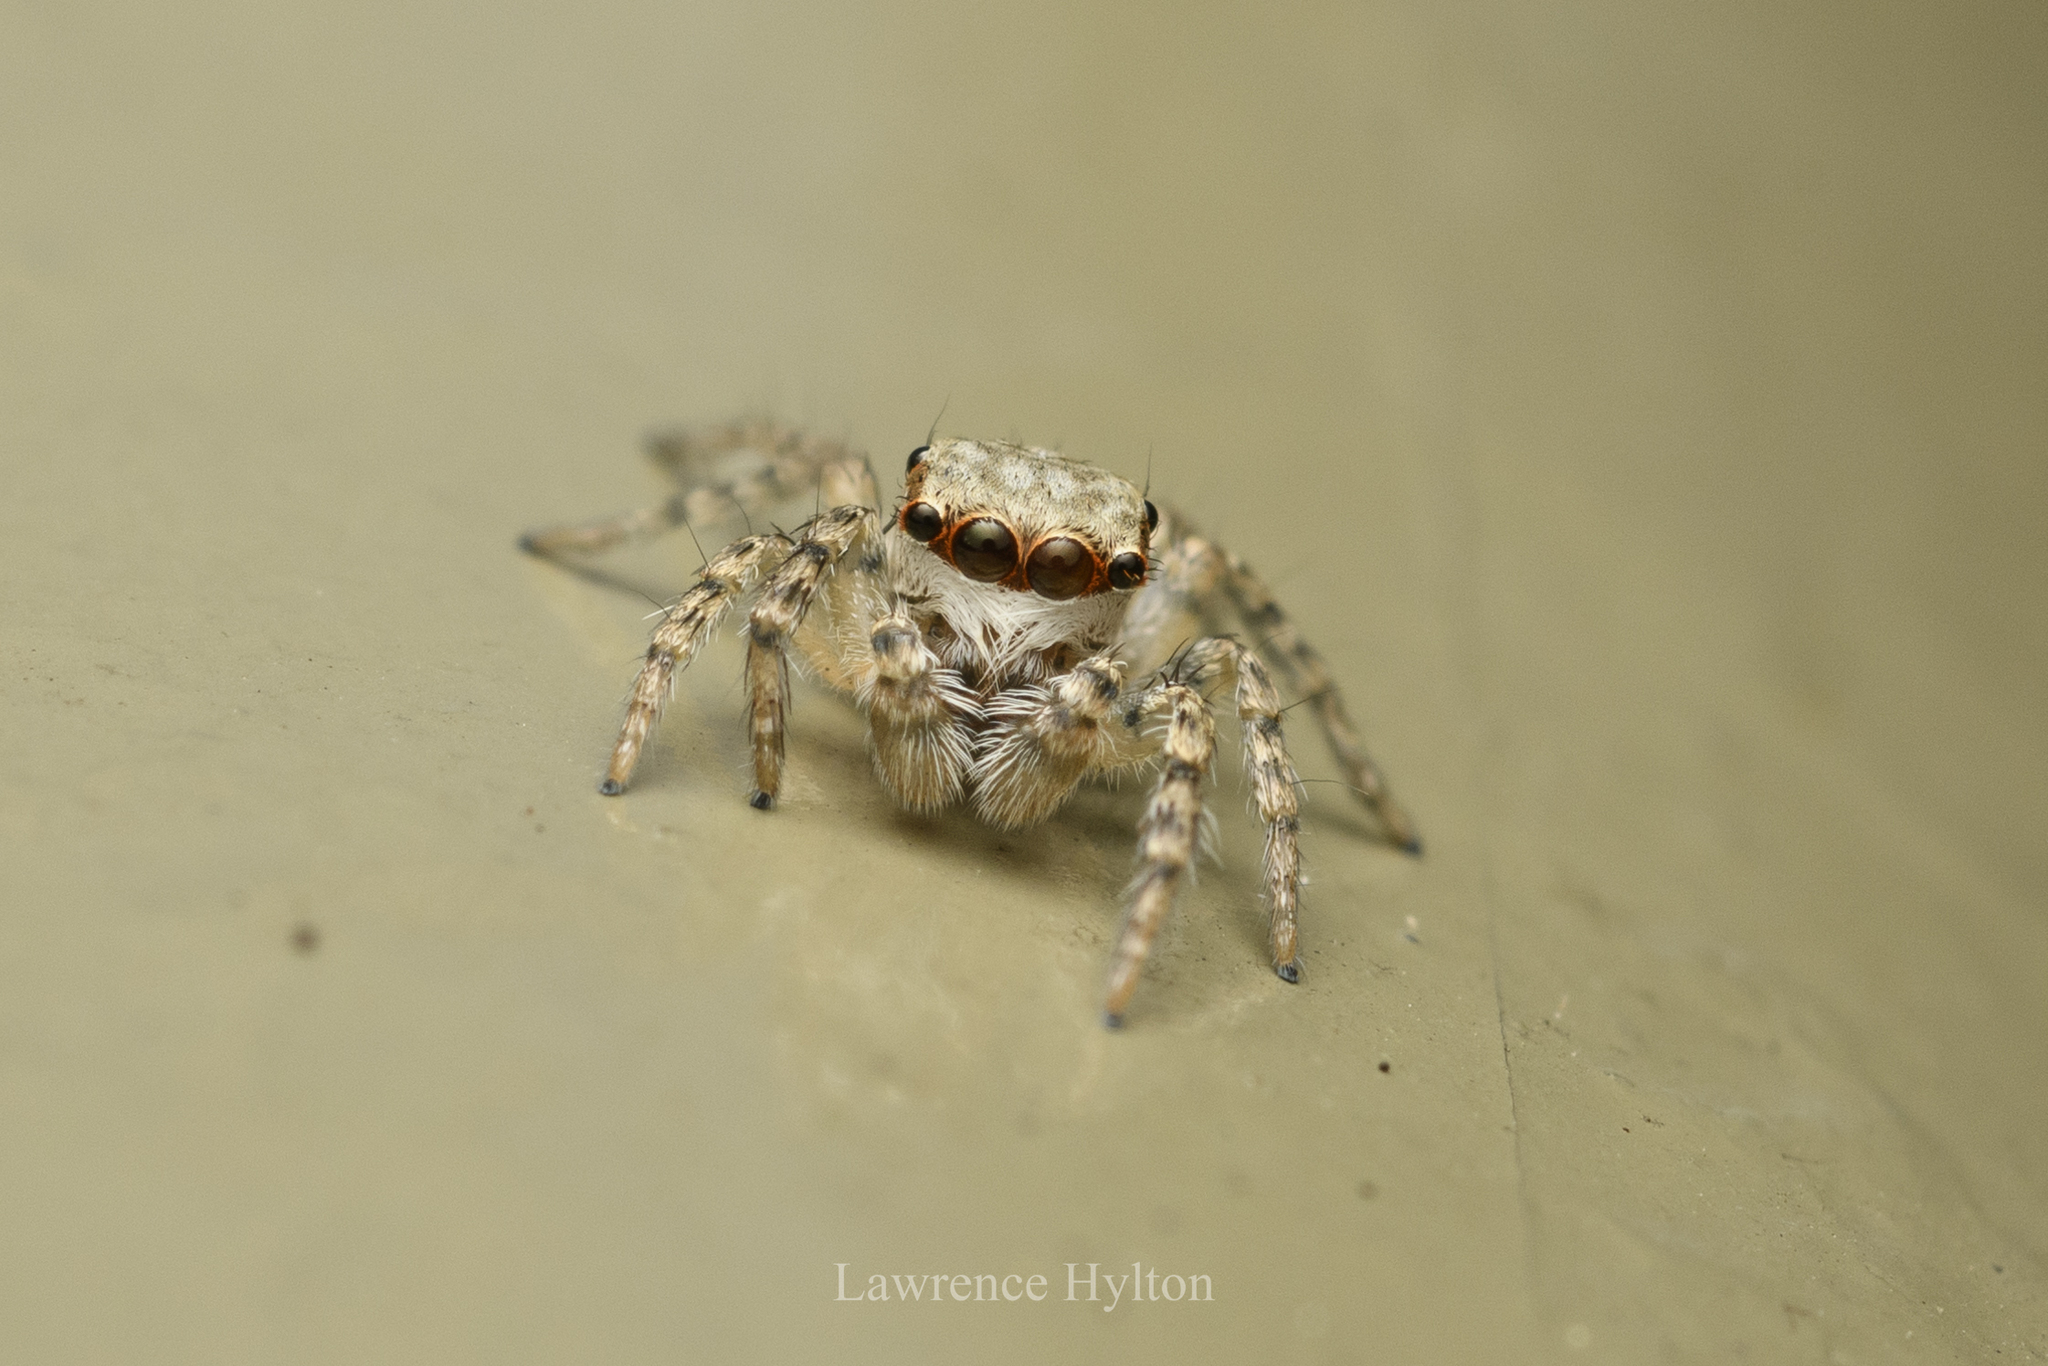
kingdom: Animalia
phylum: Arthropoda
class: Arachnida
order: Araneae
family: Salticidae
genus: Cytaea
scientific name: Cytaea maoming
